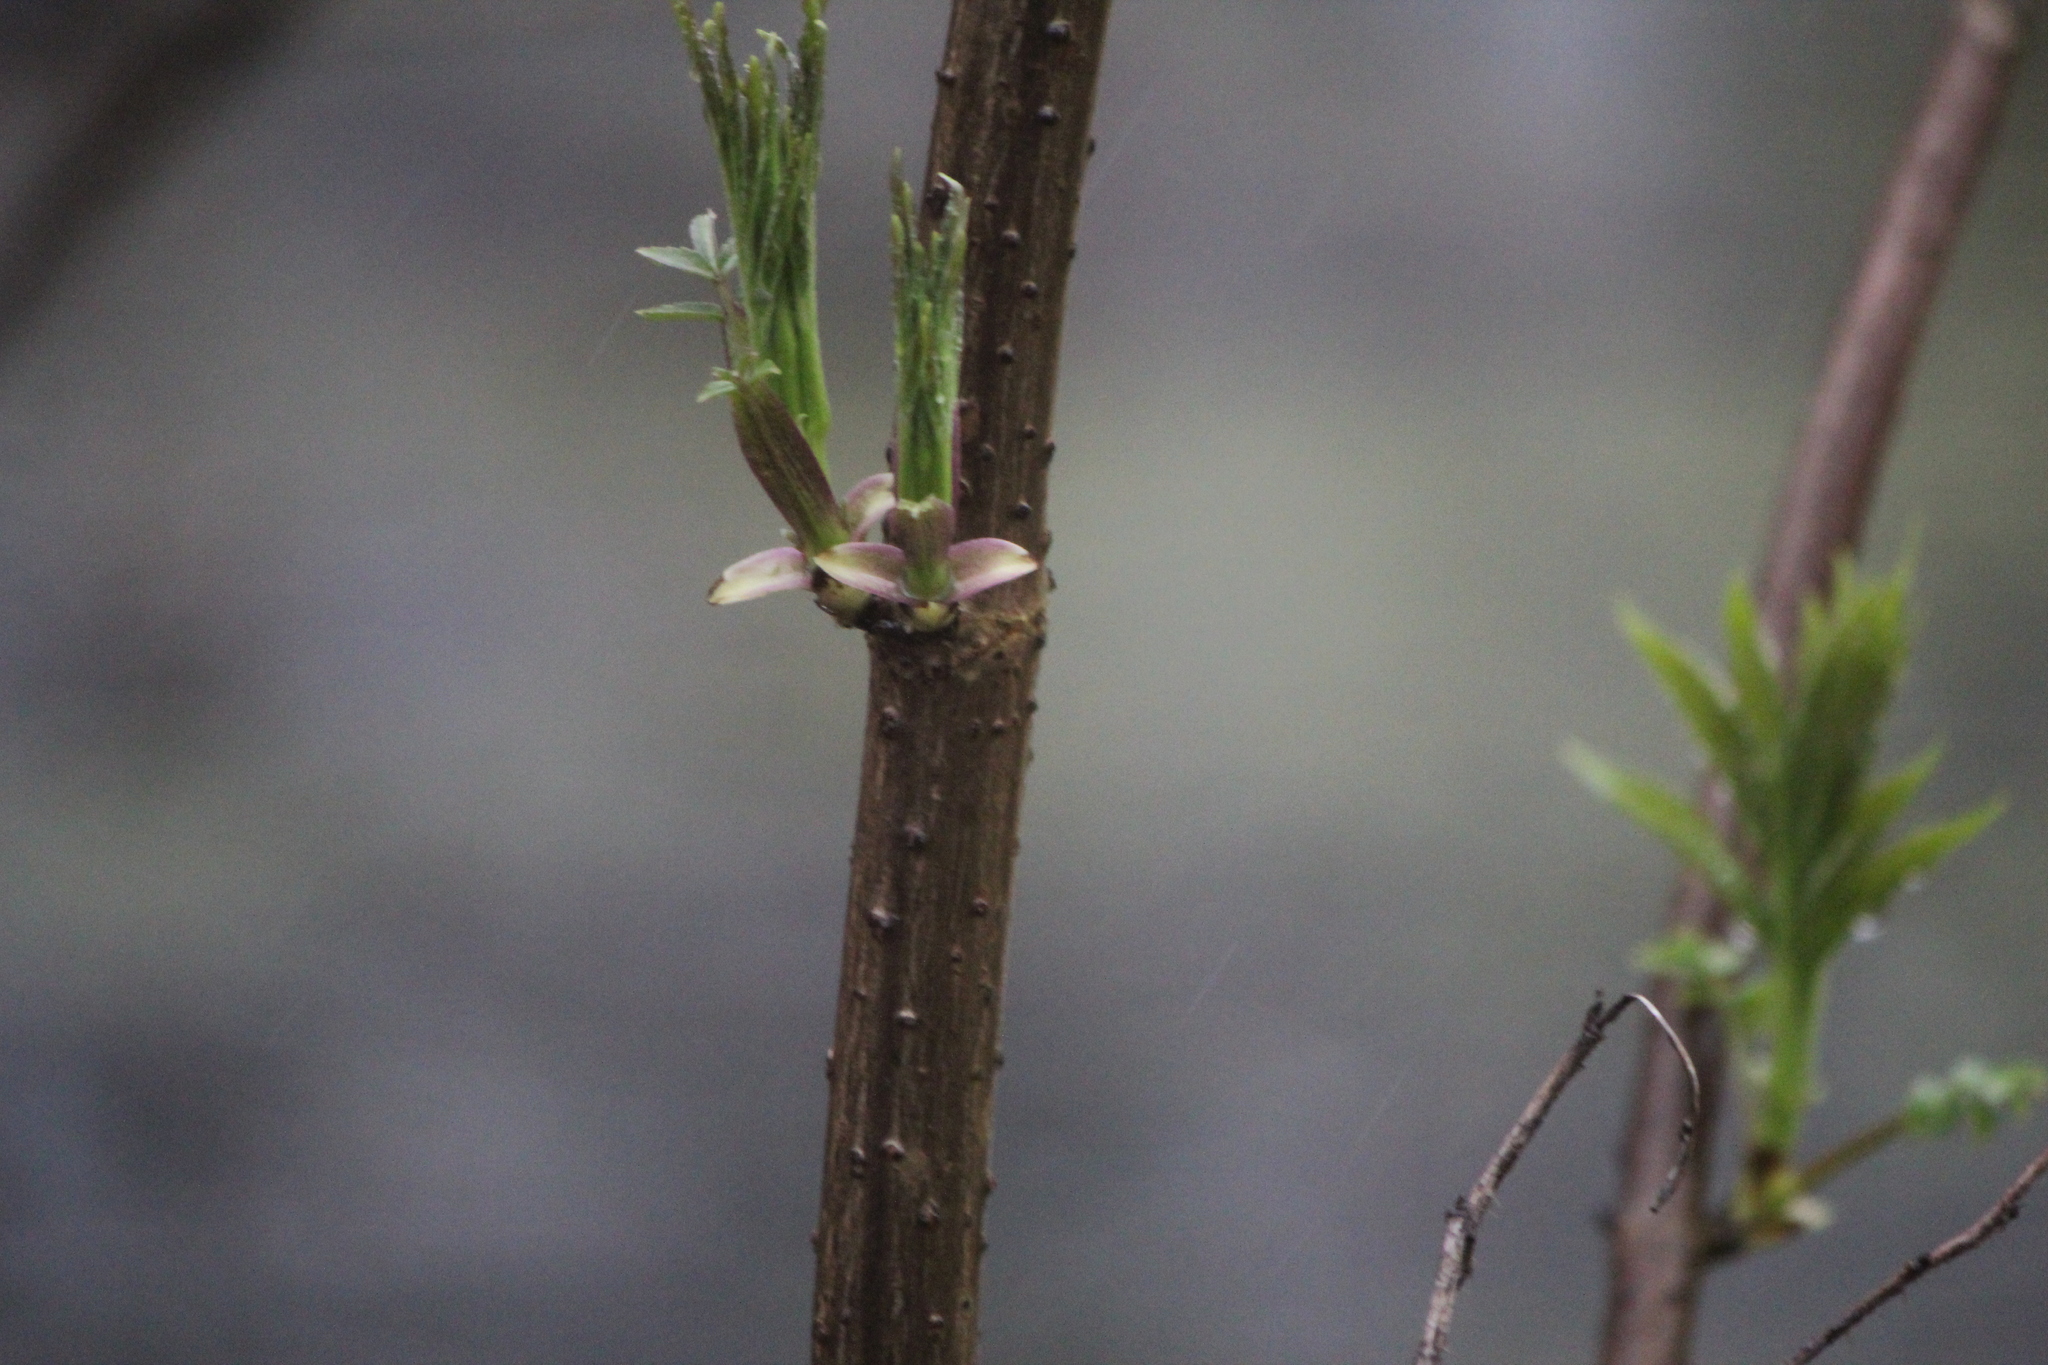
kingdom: Plantae
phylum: Tracheophyta
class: Magnoliopsida
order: Dipsacales
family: Viburnaceae
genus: Sambucus
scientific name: Sambucus racemosa
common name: Red-berried elder
